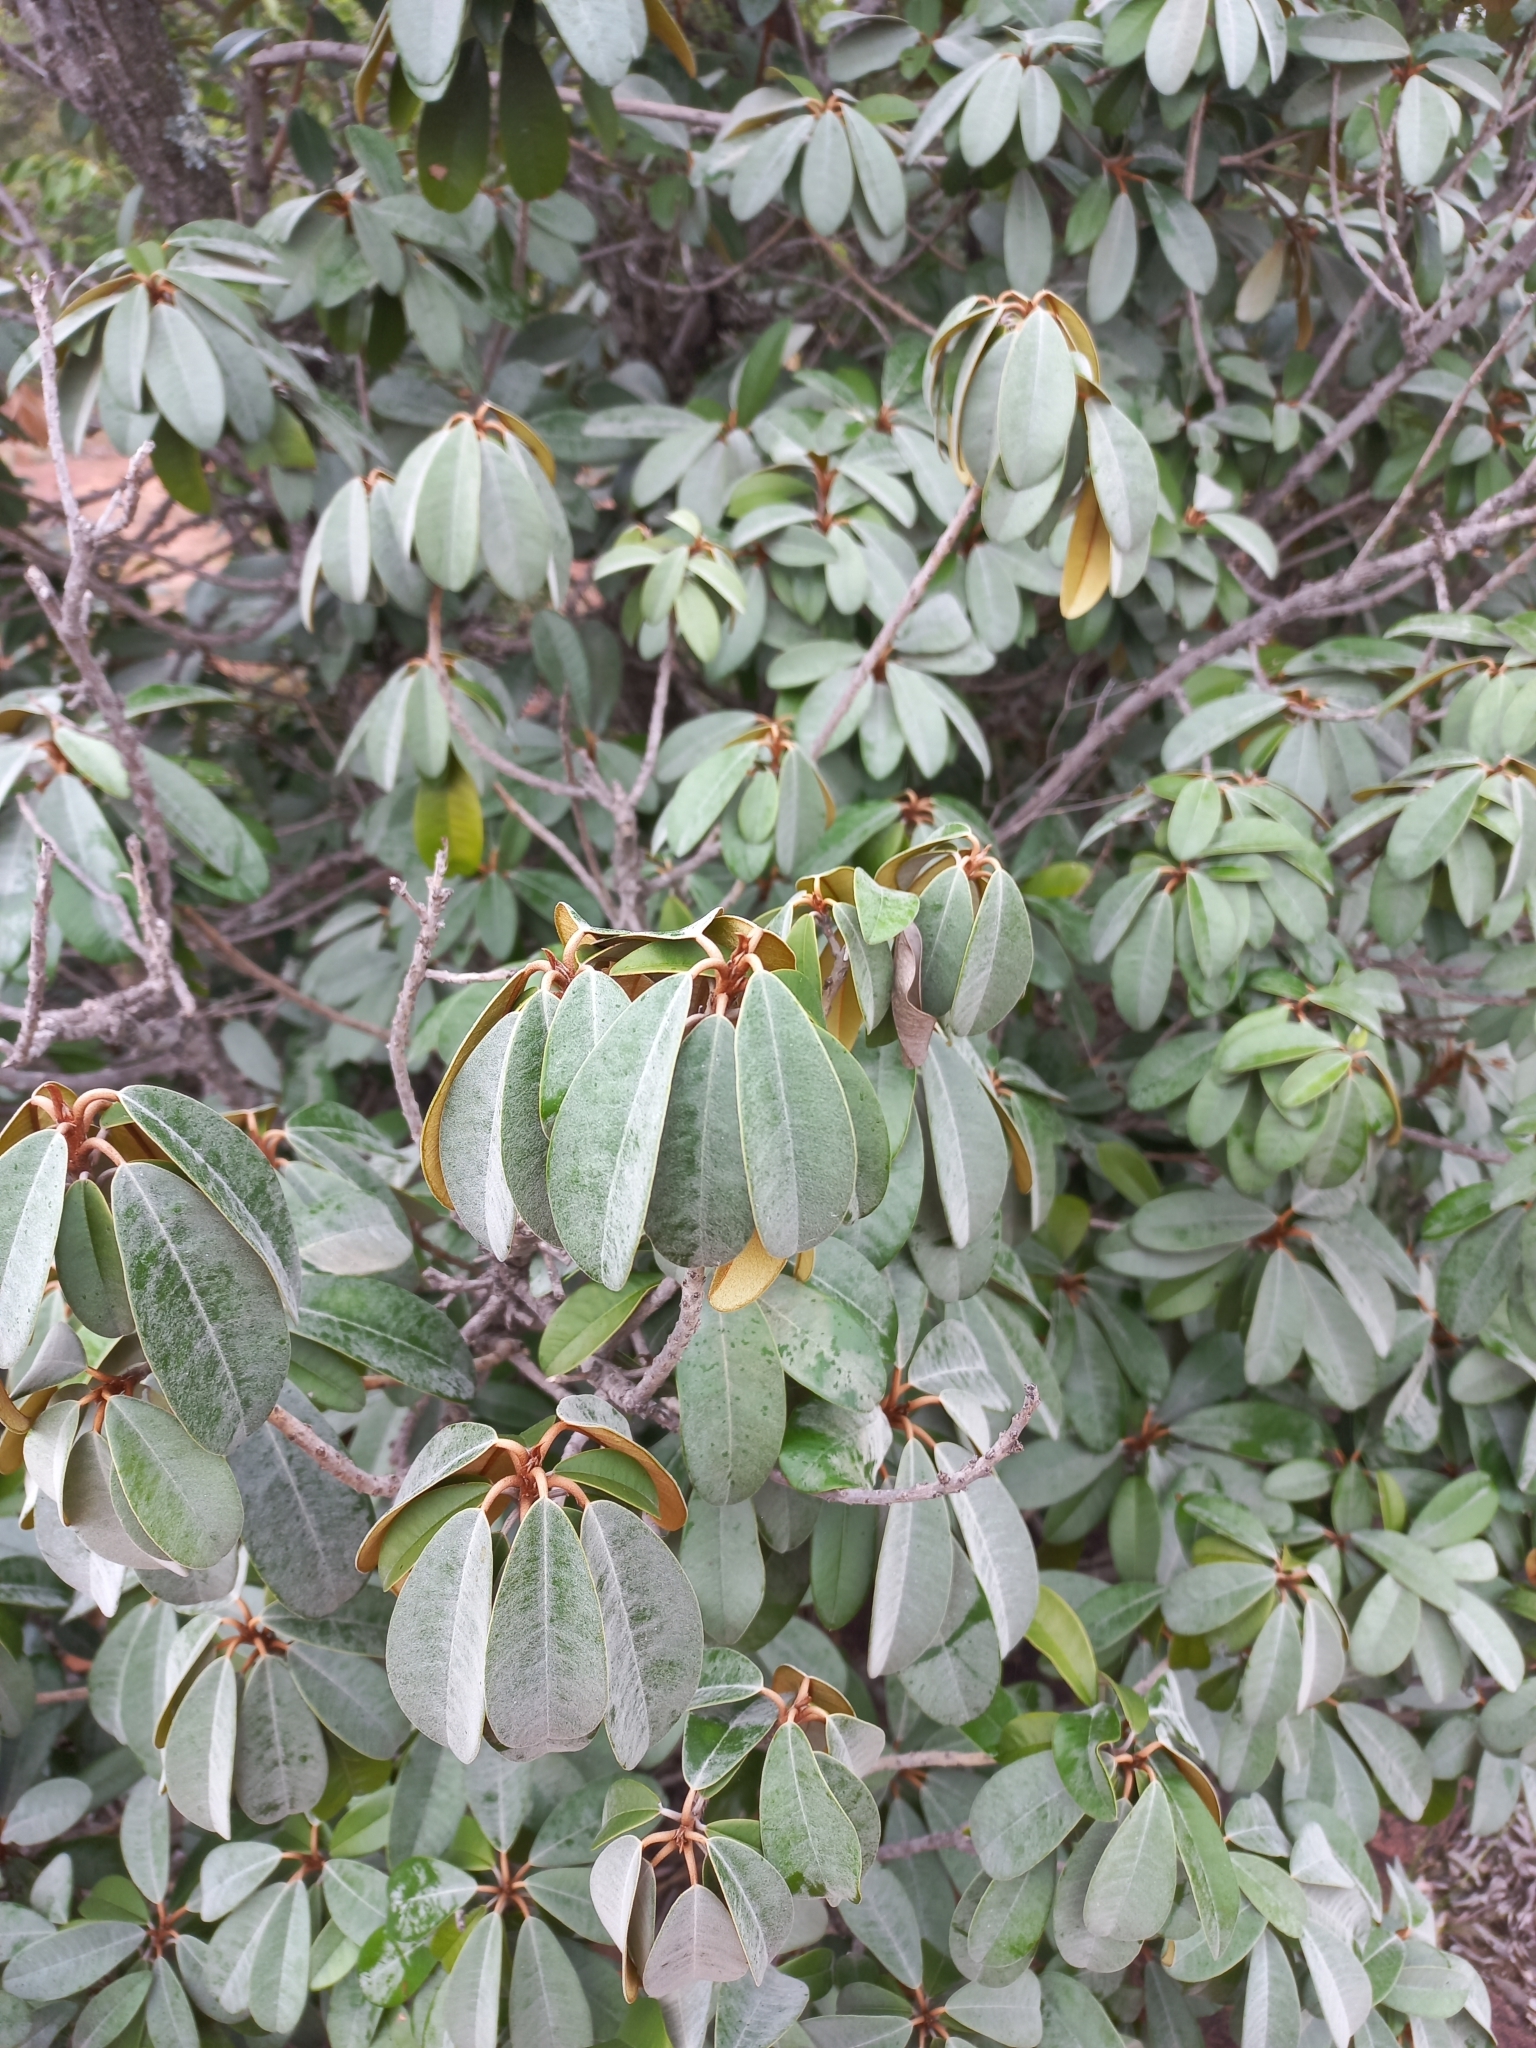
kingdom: Plantae
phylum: Tracheophyta
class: Magnoliopsida
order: Ericales
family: Sapotaceae
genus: Englerophytum
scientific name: Englerophytum magalismontanum
